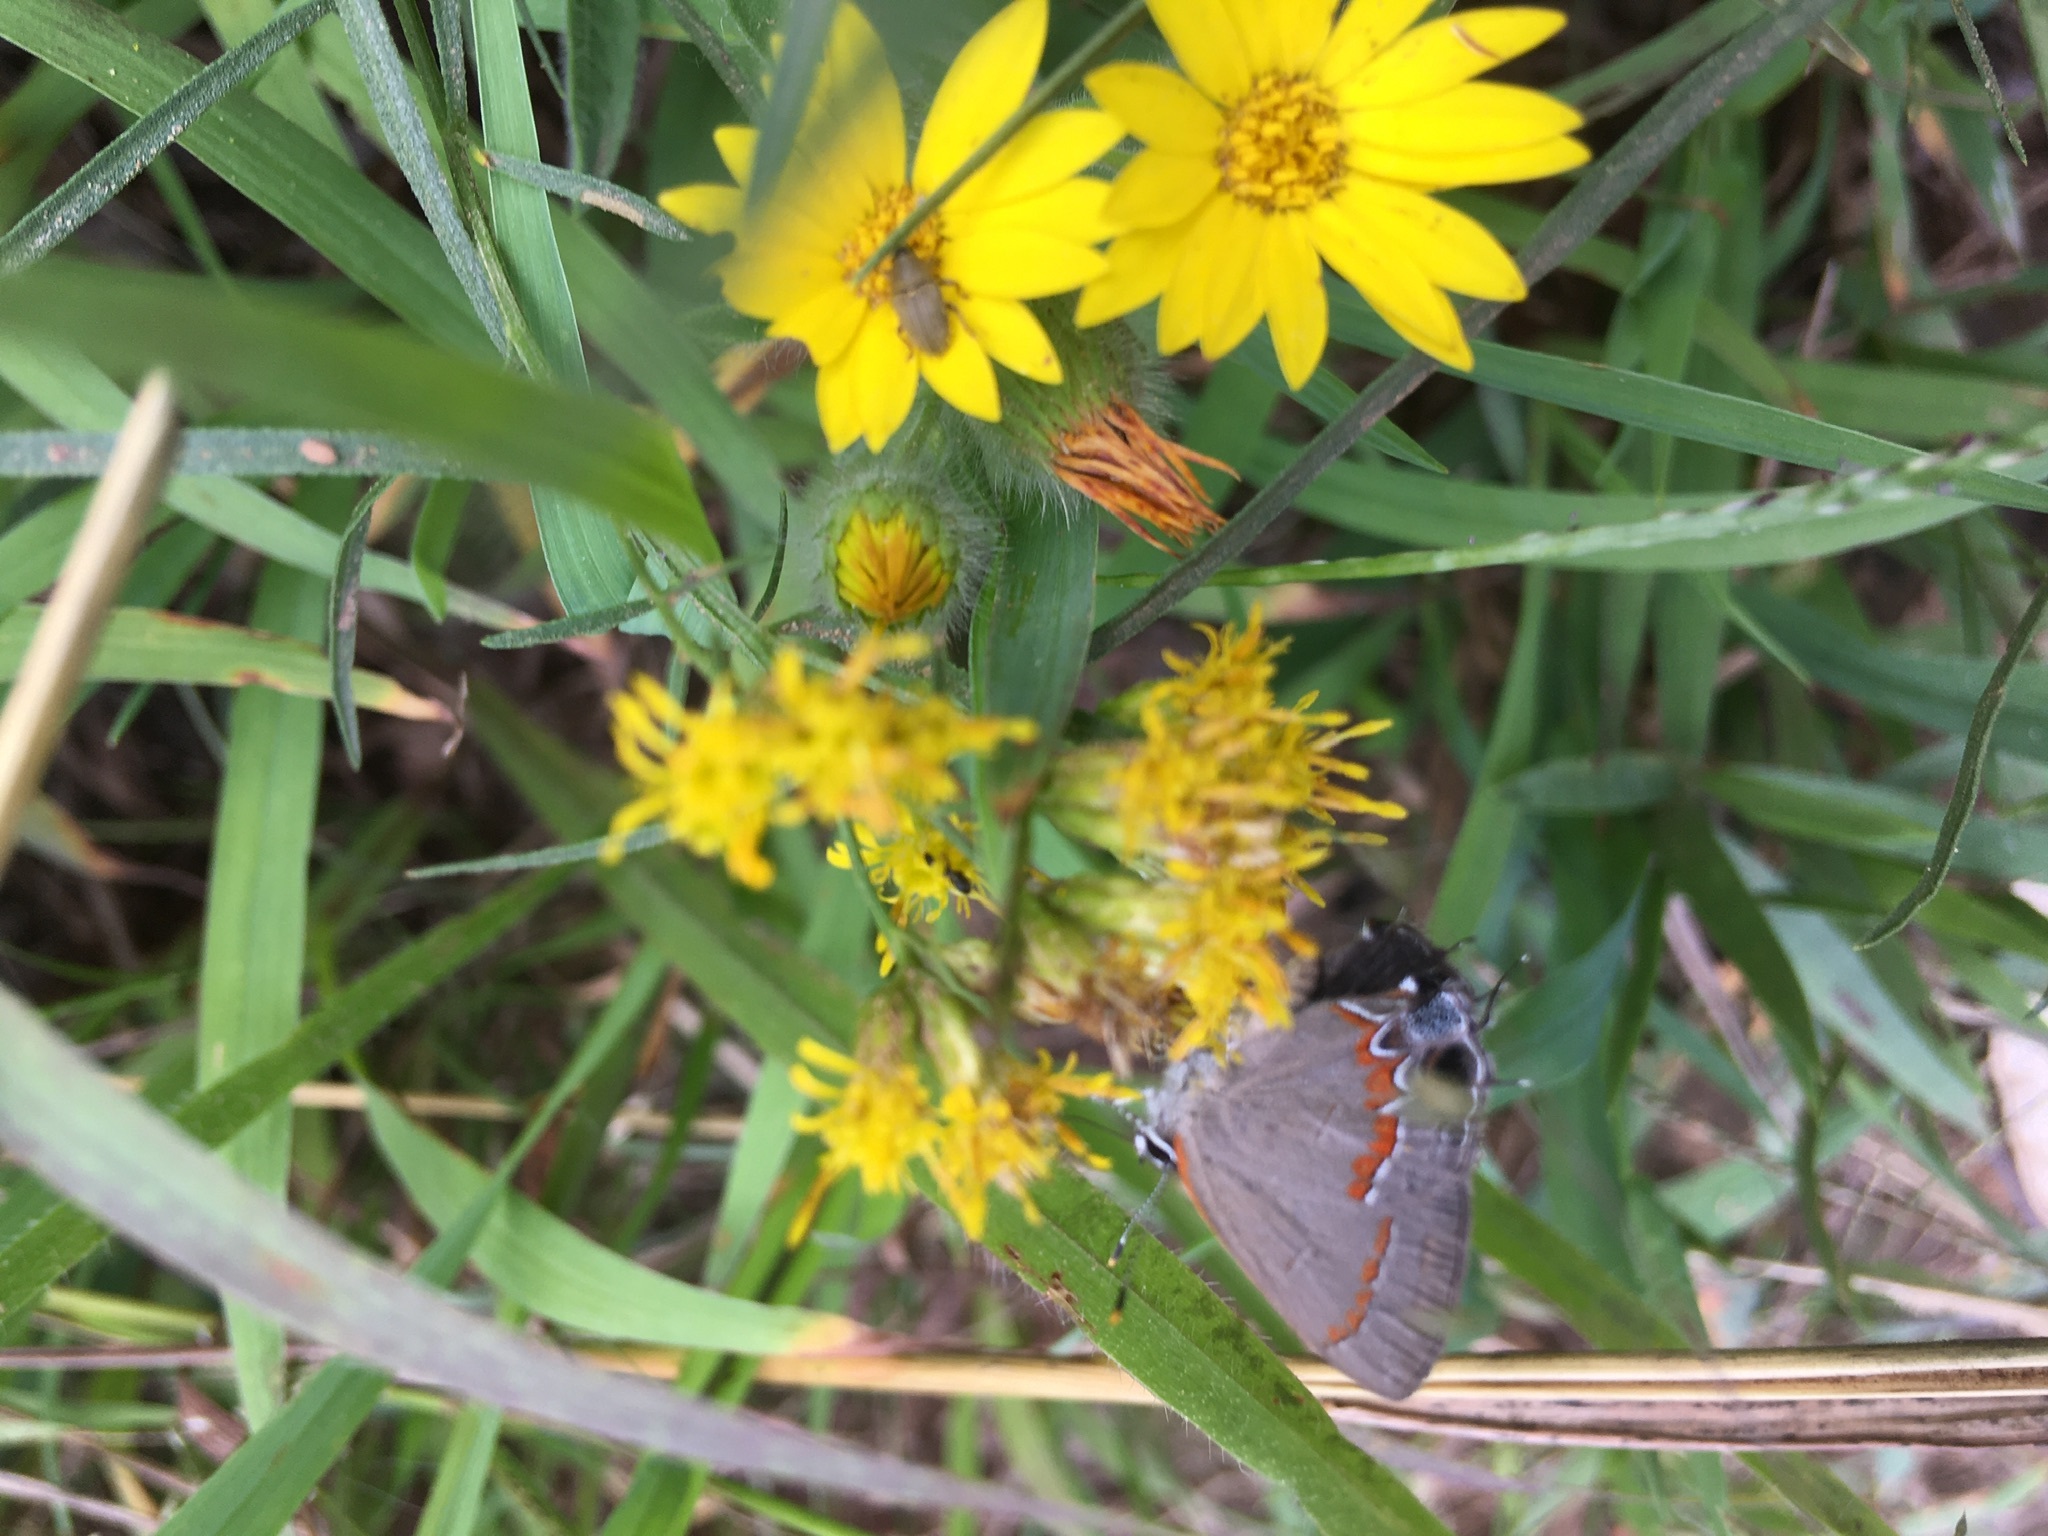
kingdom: Animalia
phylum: Arthropoda
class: Insecta
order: Lepidoptera
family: Lycaenidae
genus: Calycopis
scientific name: Calycopis cecrops
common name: Red-banded hairstreak
